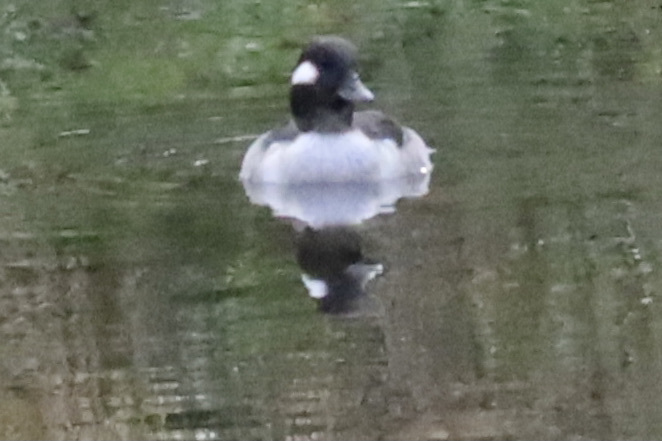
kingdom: Animalia
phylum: Chordata
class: Aves
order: Anseriformes
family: Anatidae
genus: Bucephala
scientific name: Bucephala albeola
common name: Bufflehead
